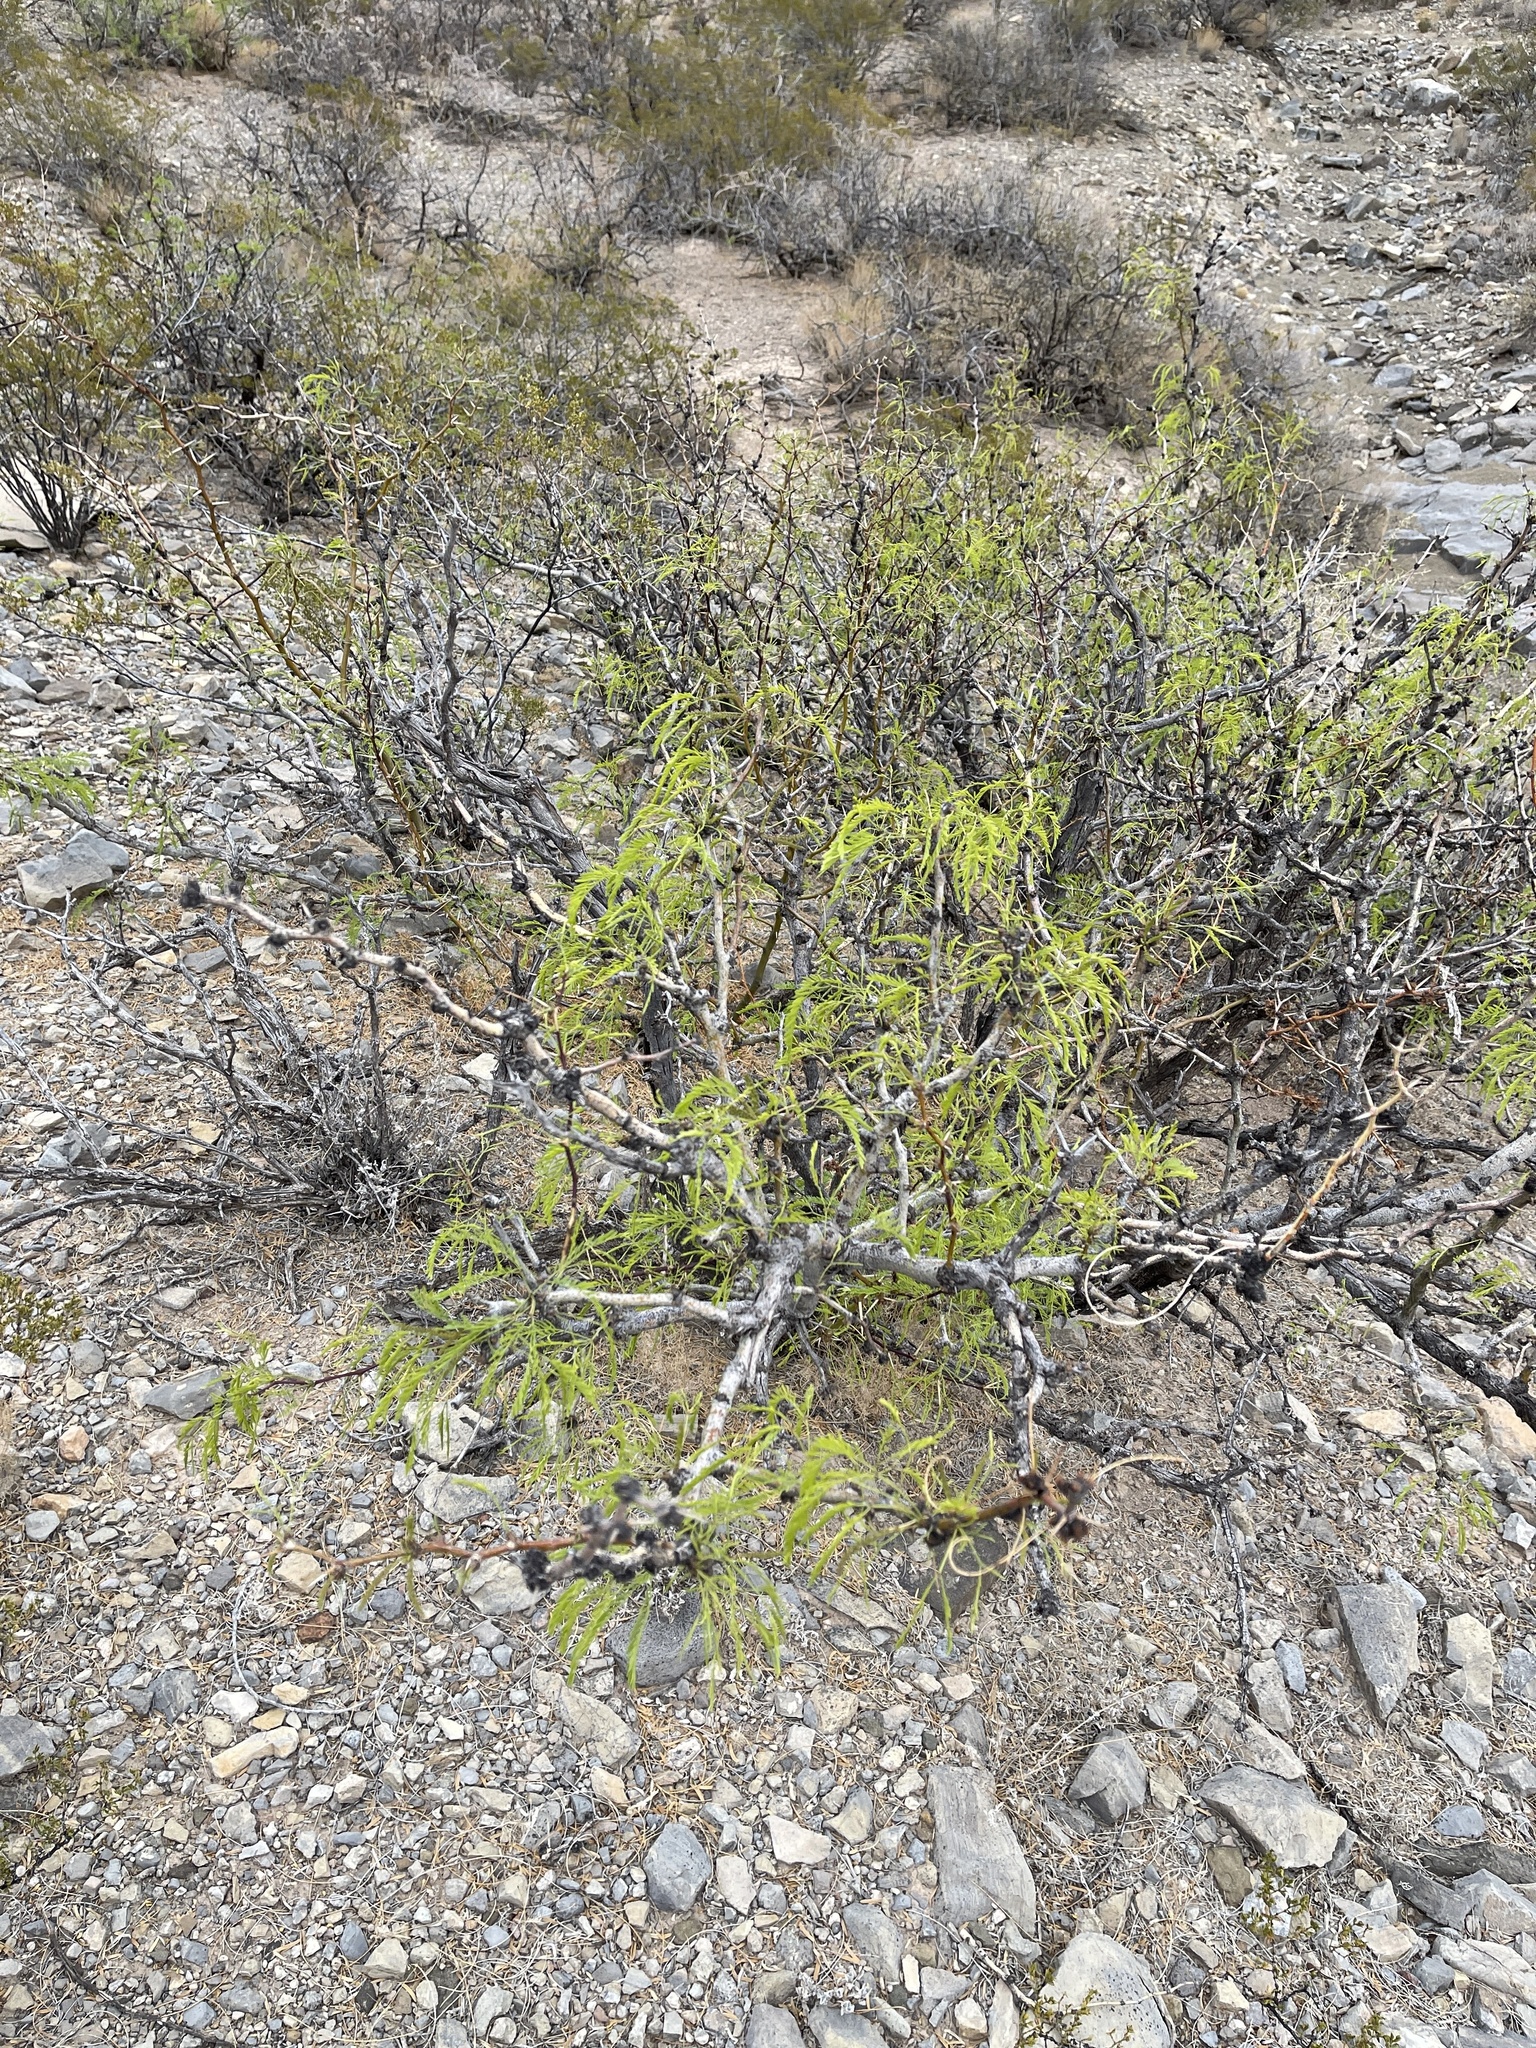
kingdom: Plantae
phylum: Tracheophyta
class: Magnoliopsida
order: Fabales
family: Fabaceae
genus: Prosopis
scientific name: Prosopis glandulosa
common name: Honey mesquite
